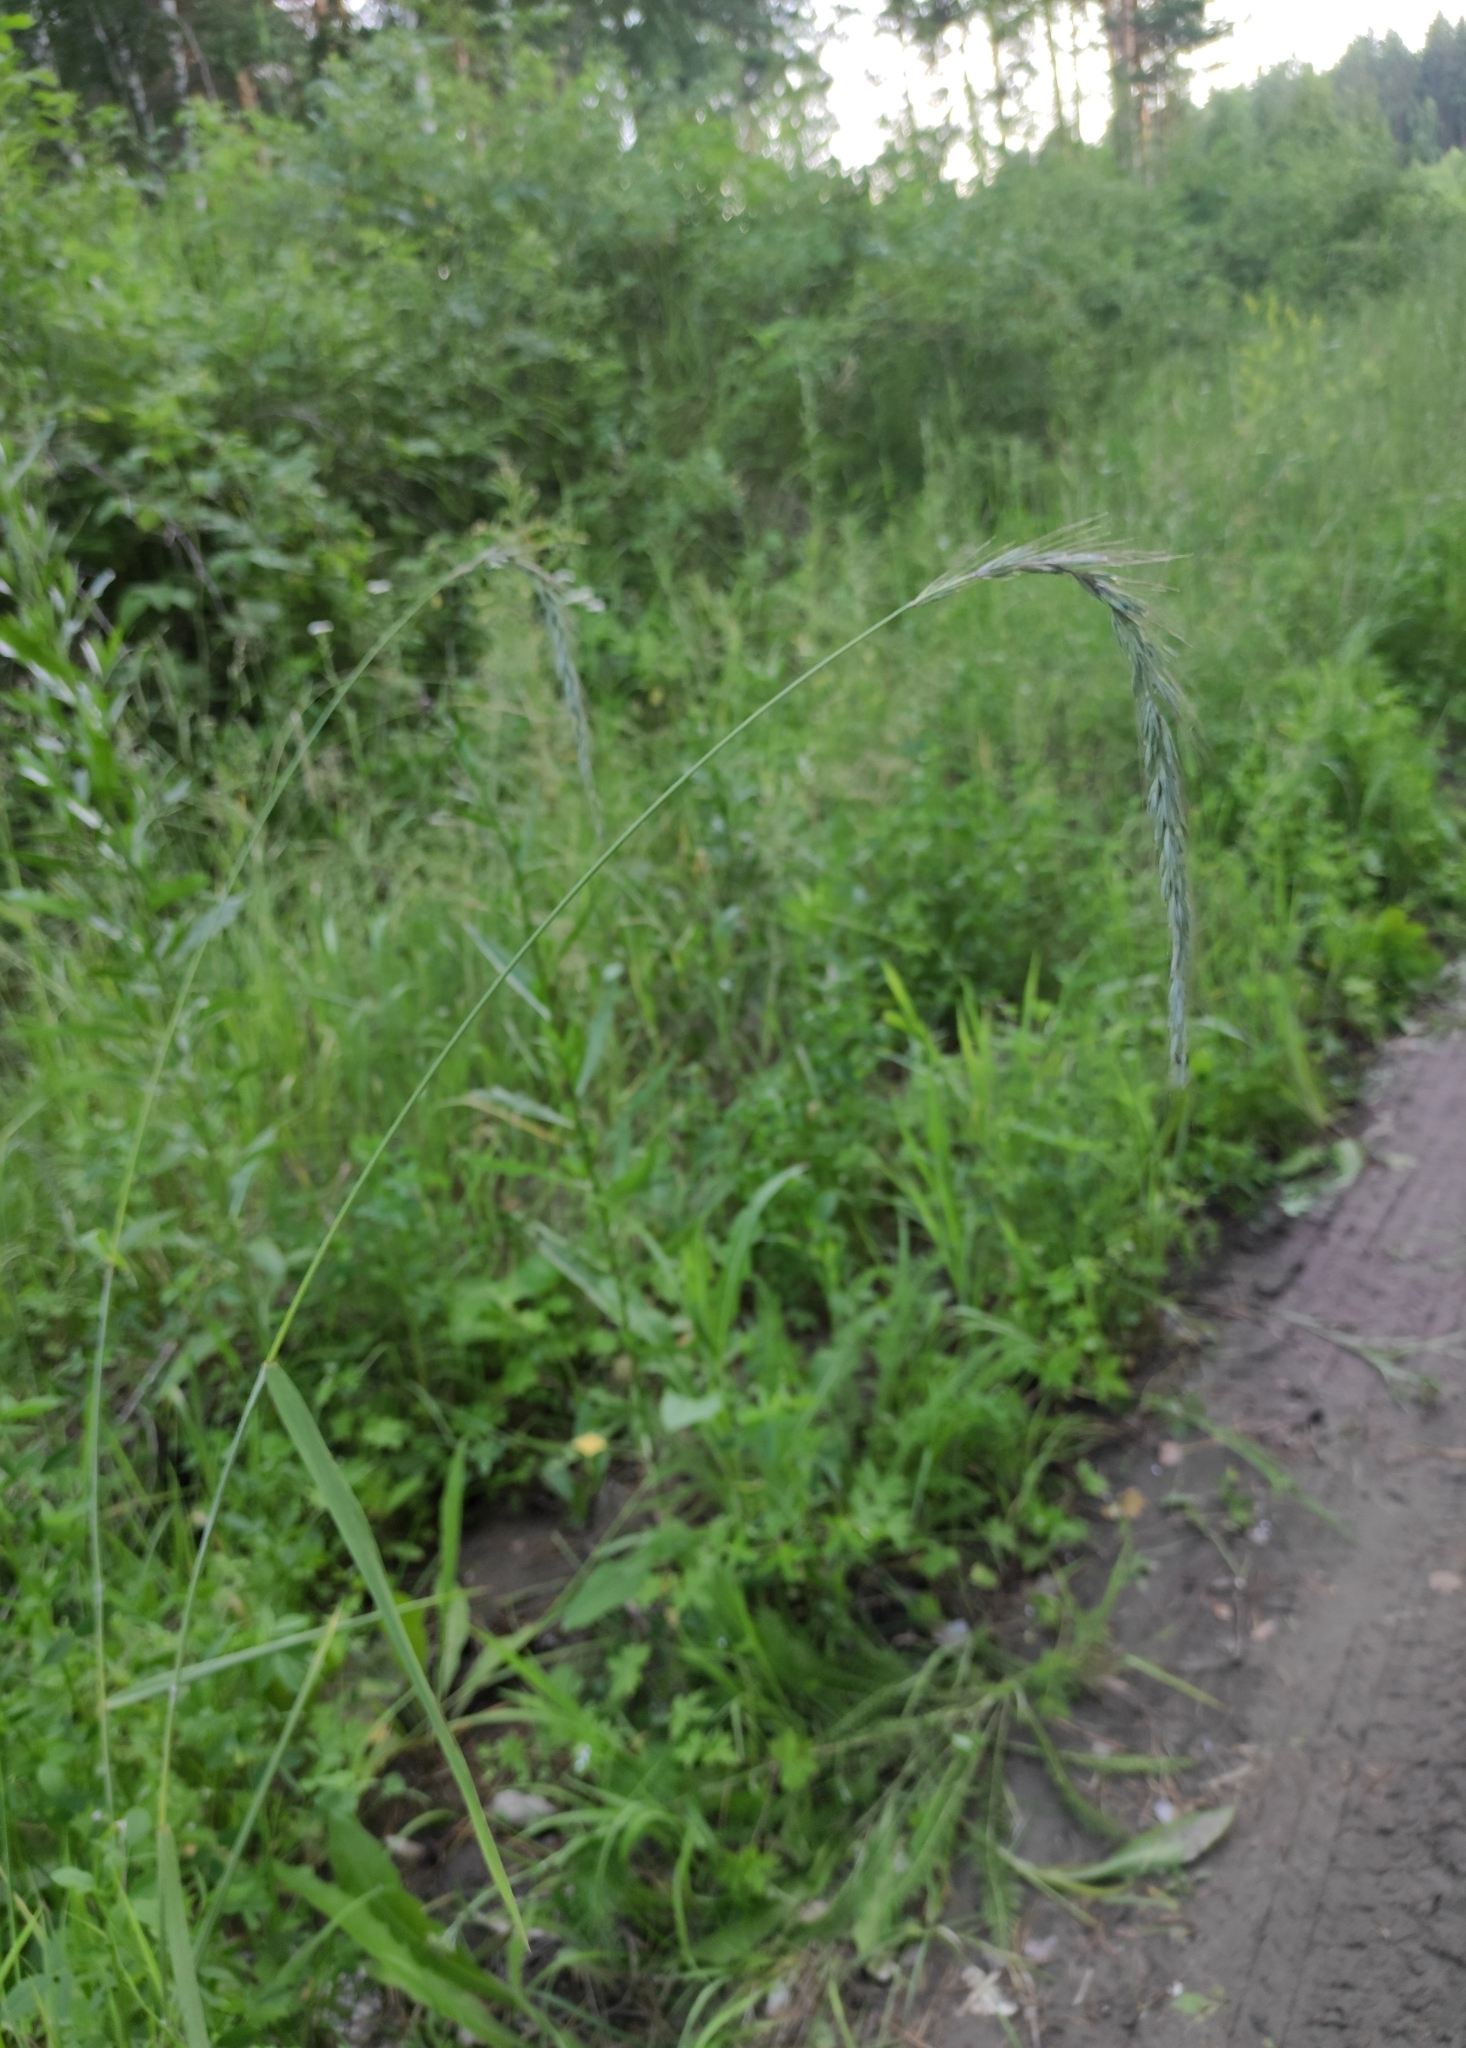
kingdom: Plantae
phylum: Tracheophyta
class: Liliopsida
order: Poales
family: Poaceae
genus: Elymus
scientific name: Elymus sibiricus
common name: Siberian wildrye
